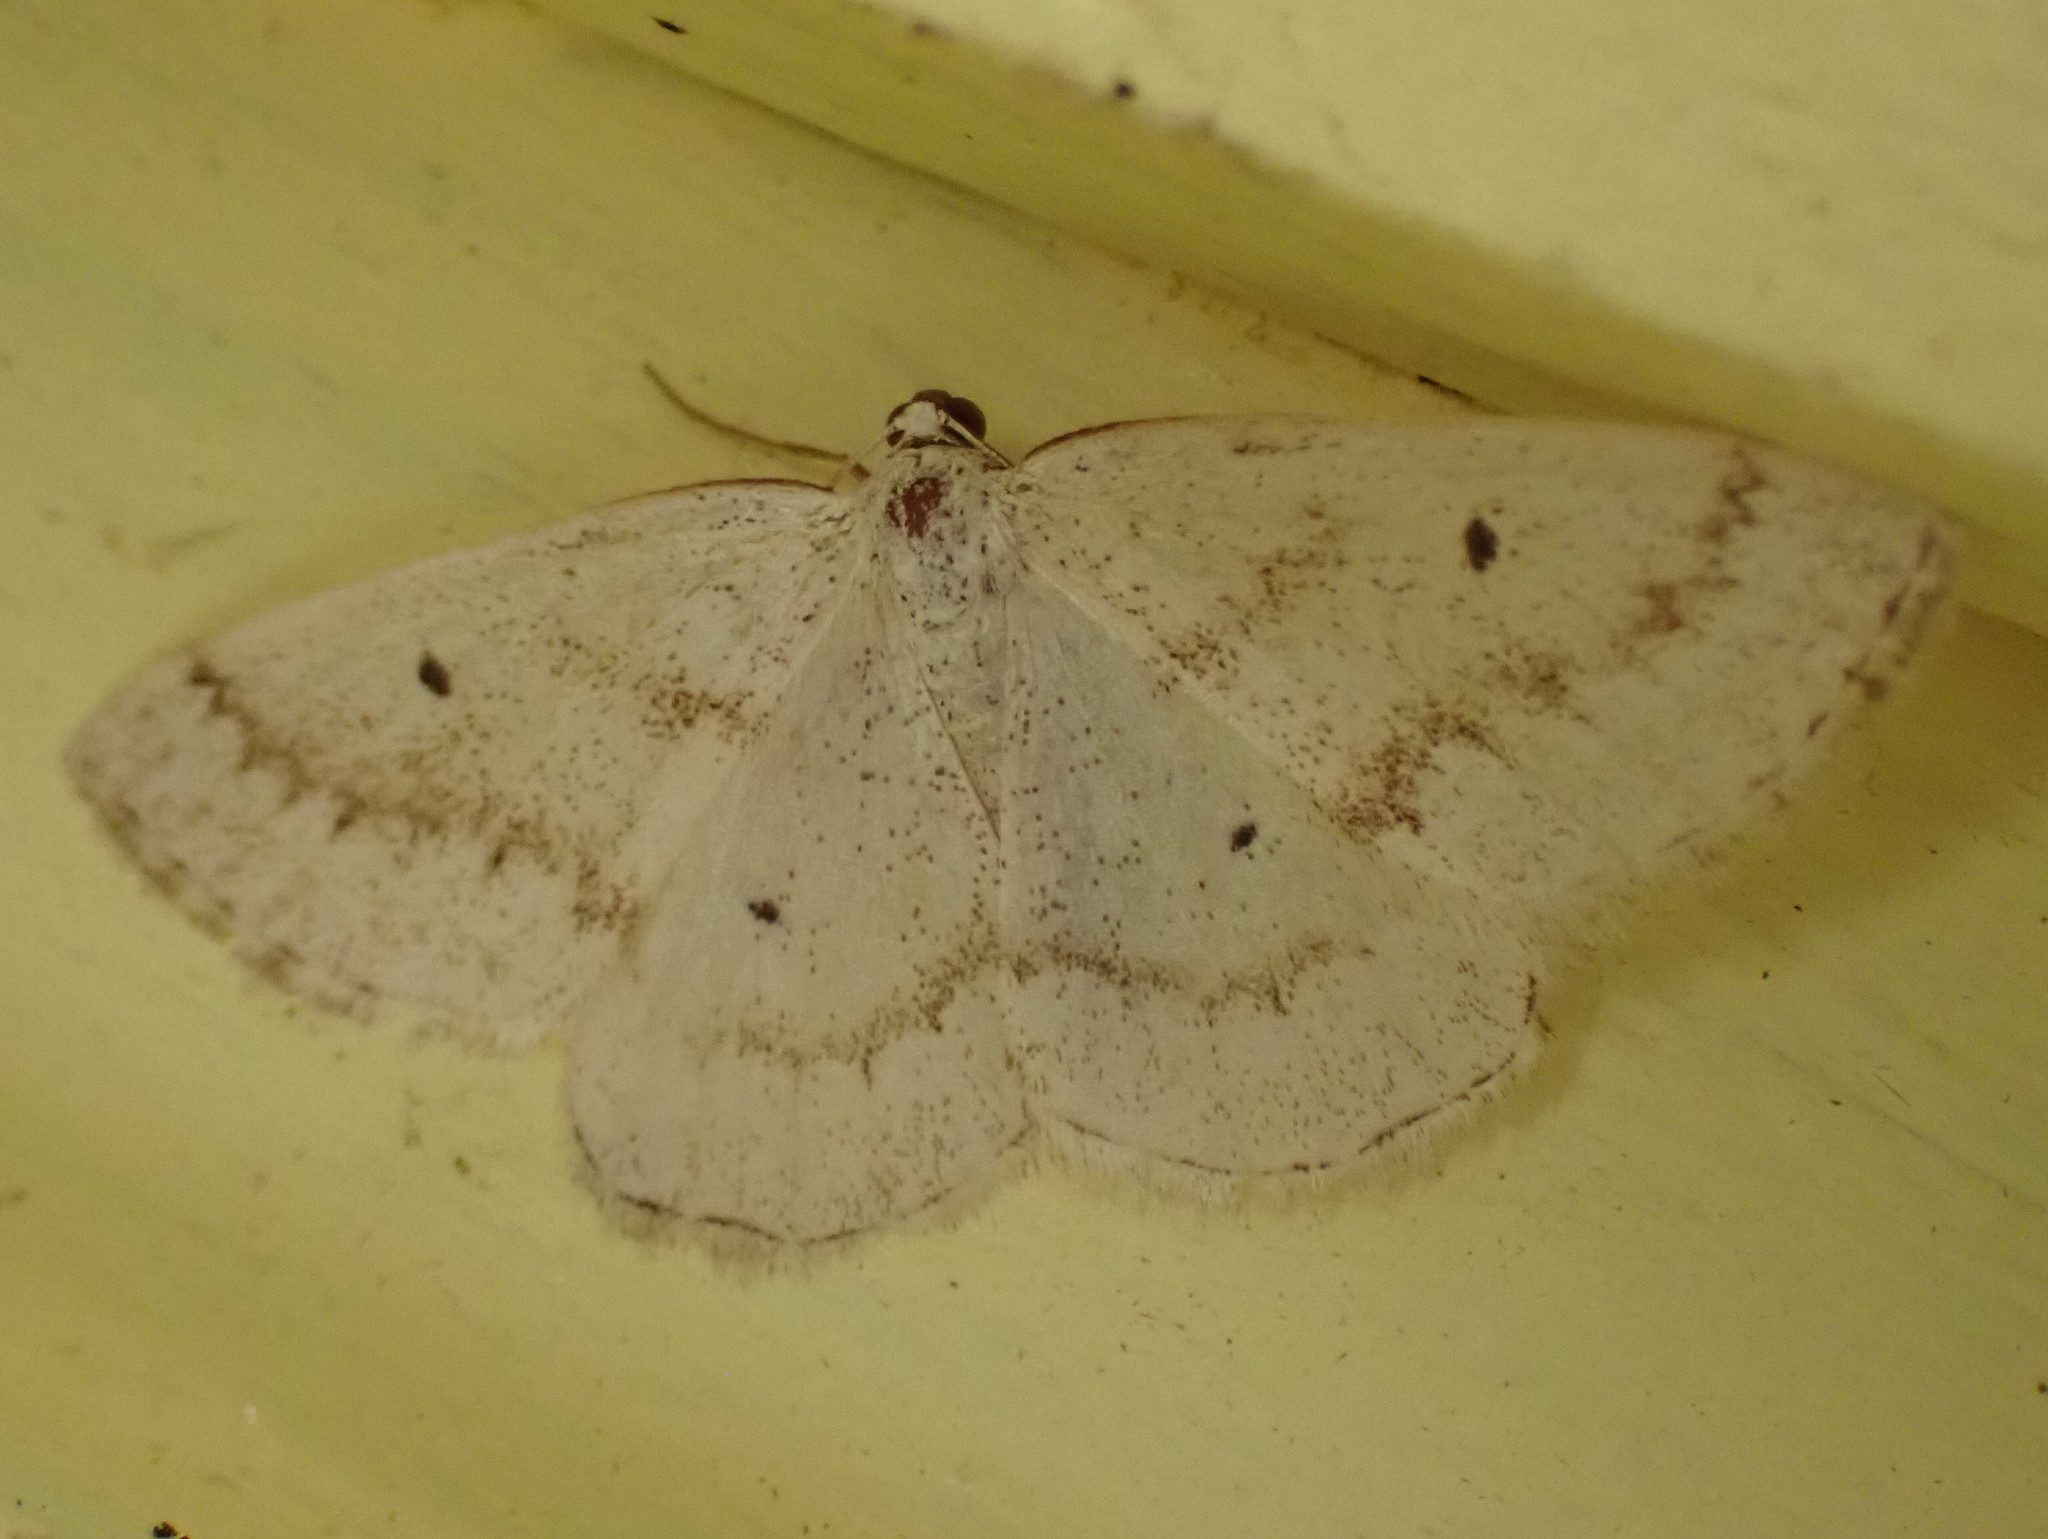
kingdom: Animalia
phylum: Arthropoda
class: Insecta
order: Lepidoptera
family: Geometridae
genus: Lomographa
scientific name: Lomographa glomeraria
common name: Gray spring moth
